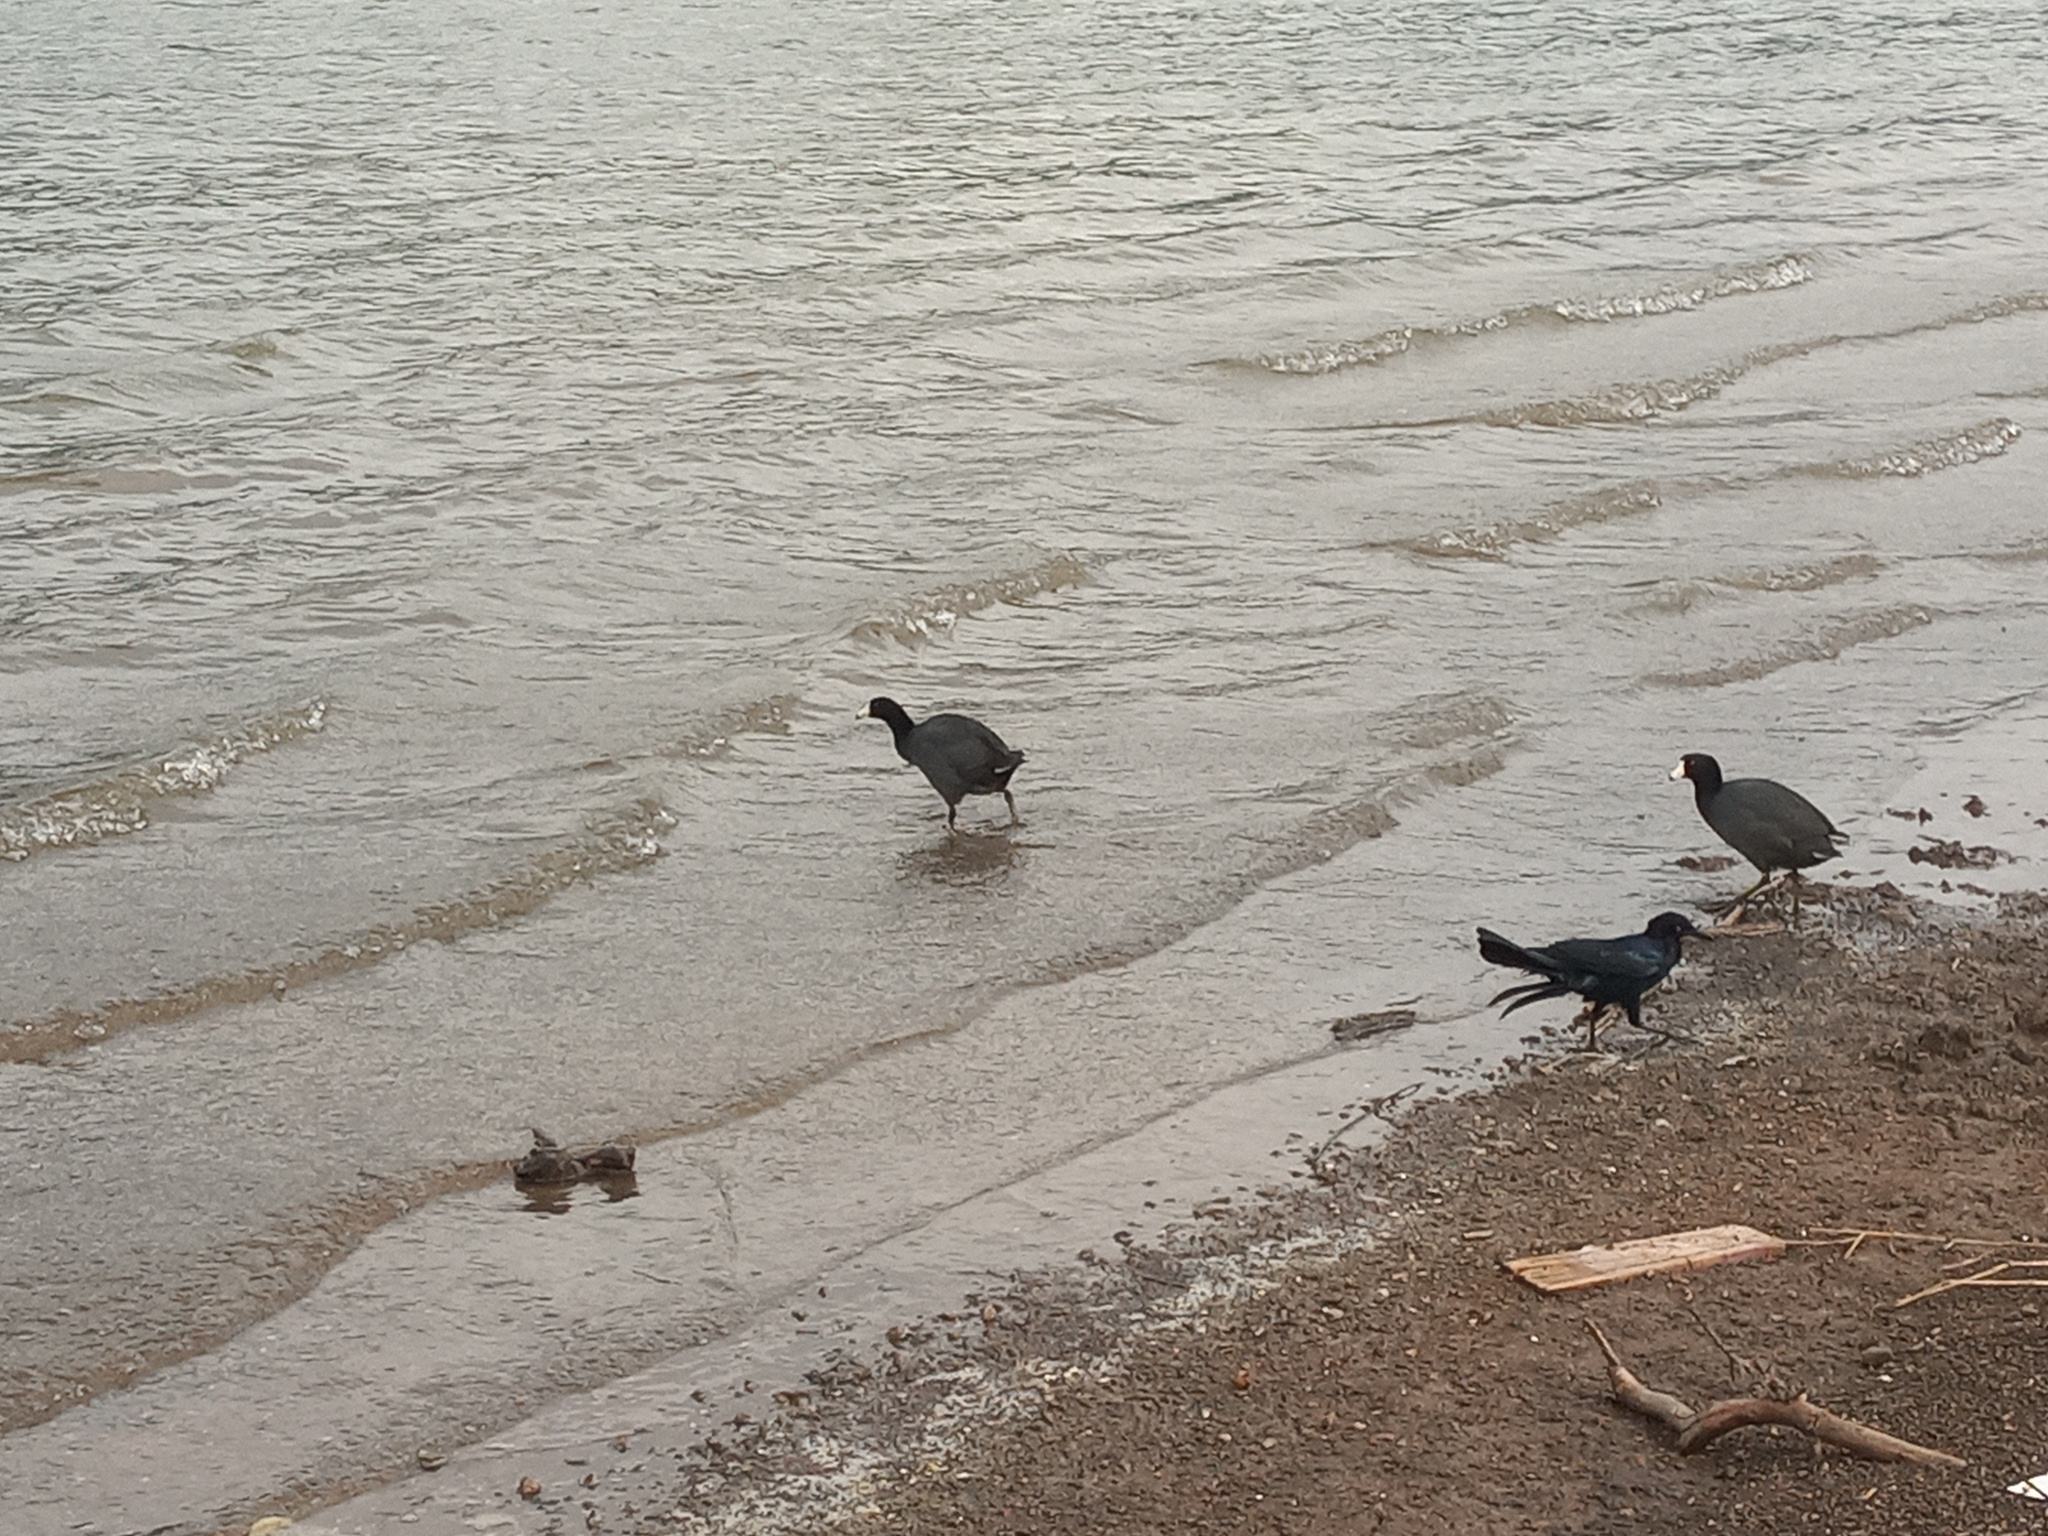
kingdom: Animalia
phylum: Chordata
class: Aves
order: Gruiformes
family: Rallidae
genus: Fulica
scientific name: Fulica americana
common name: American coot
